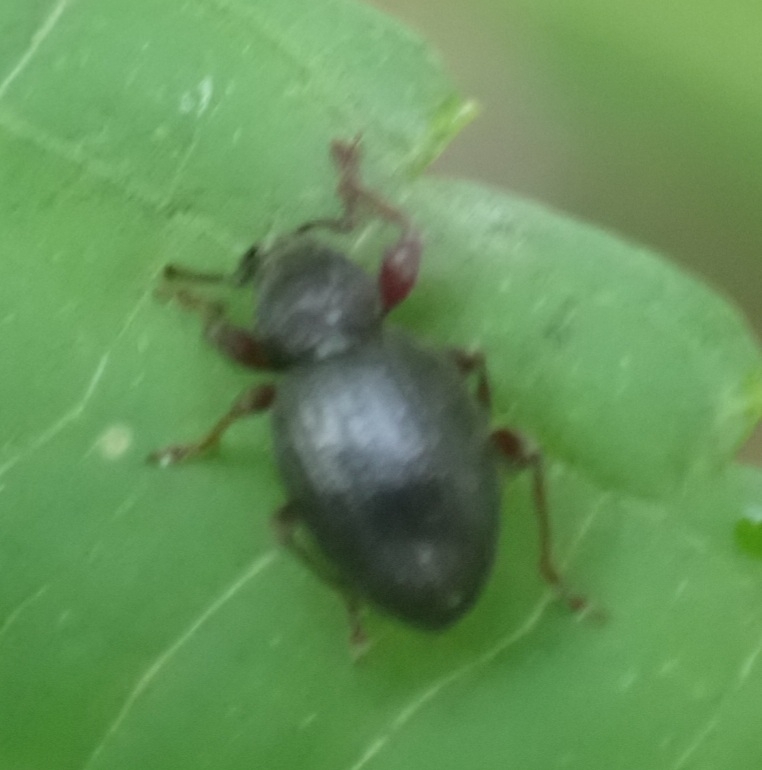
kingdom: Animalia
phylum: Arthropoda
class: Insecta
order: Coleoptera
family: Curculionidae
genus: Otiorhynchus
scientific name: Otiorhynchus ovatus
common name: Strawberry root weevil
